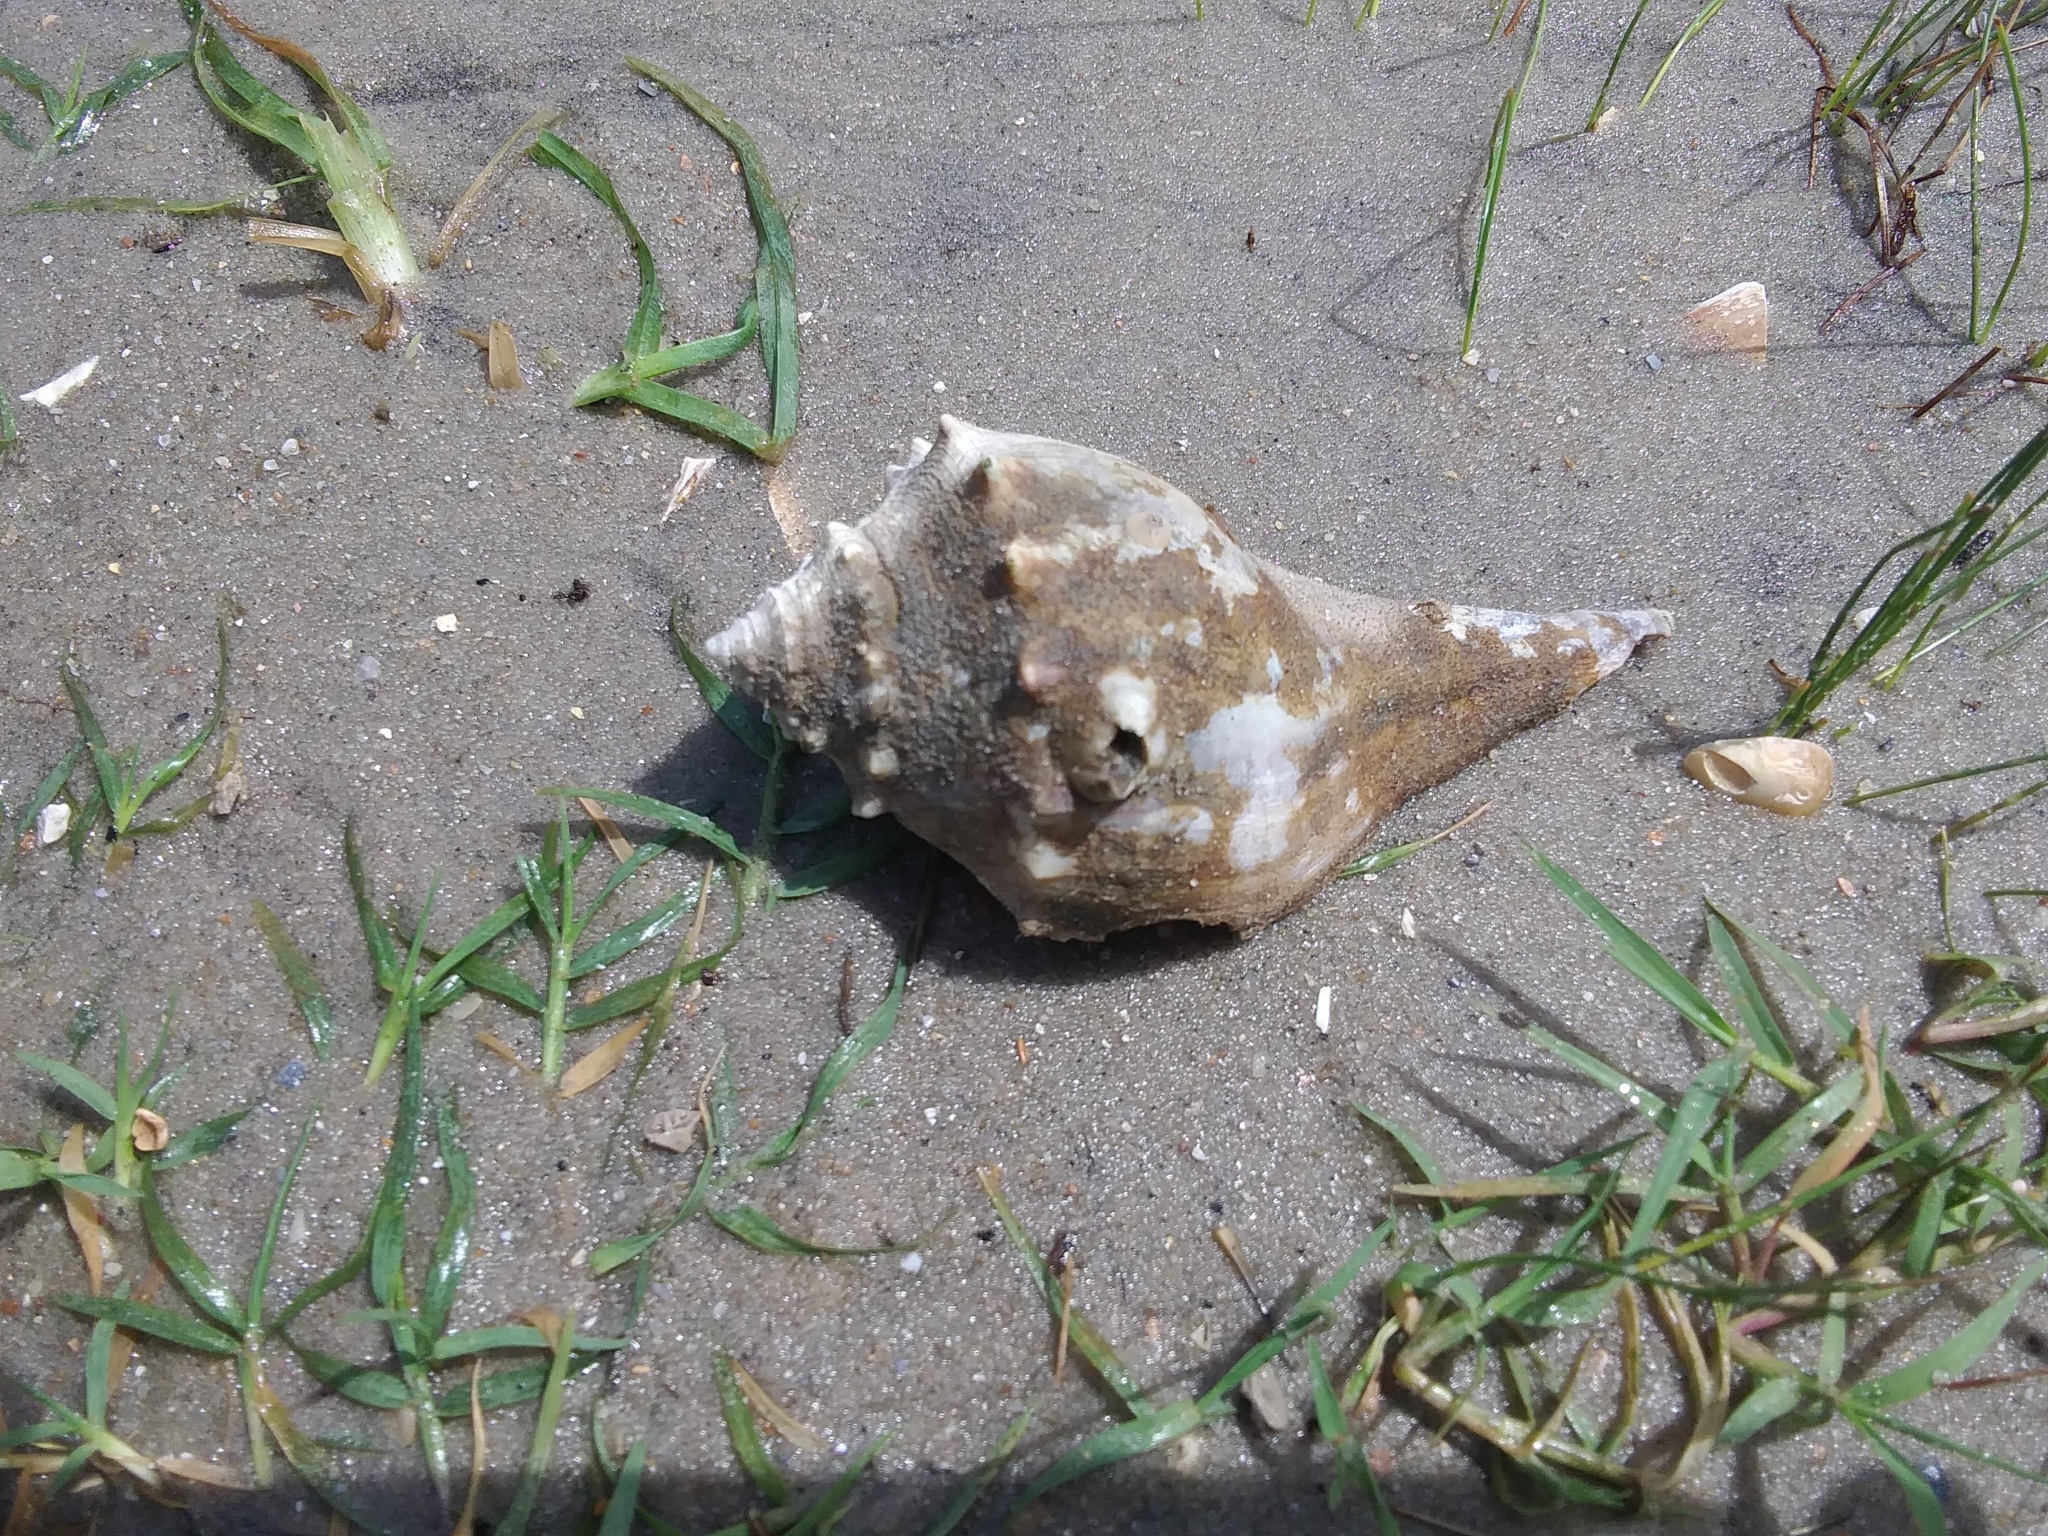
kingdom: Animalia
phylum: Mollusca
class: Gastropoda
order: Neogastropoda
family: Busyconidae
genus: Busycon
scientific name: Busycon carica
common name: Knobbed whelk
